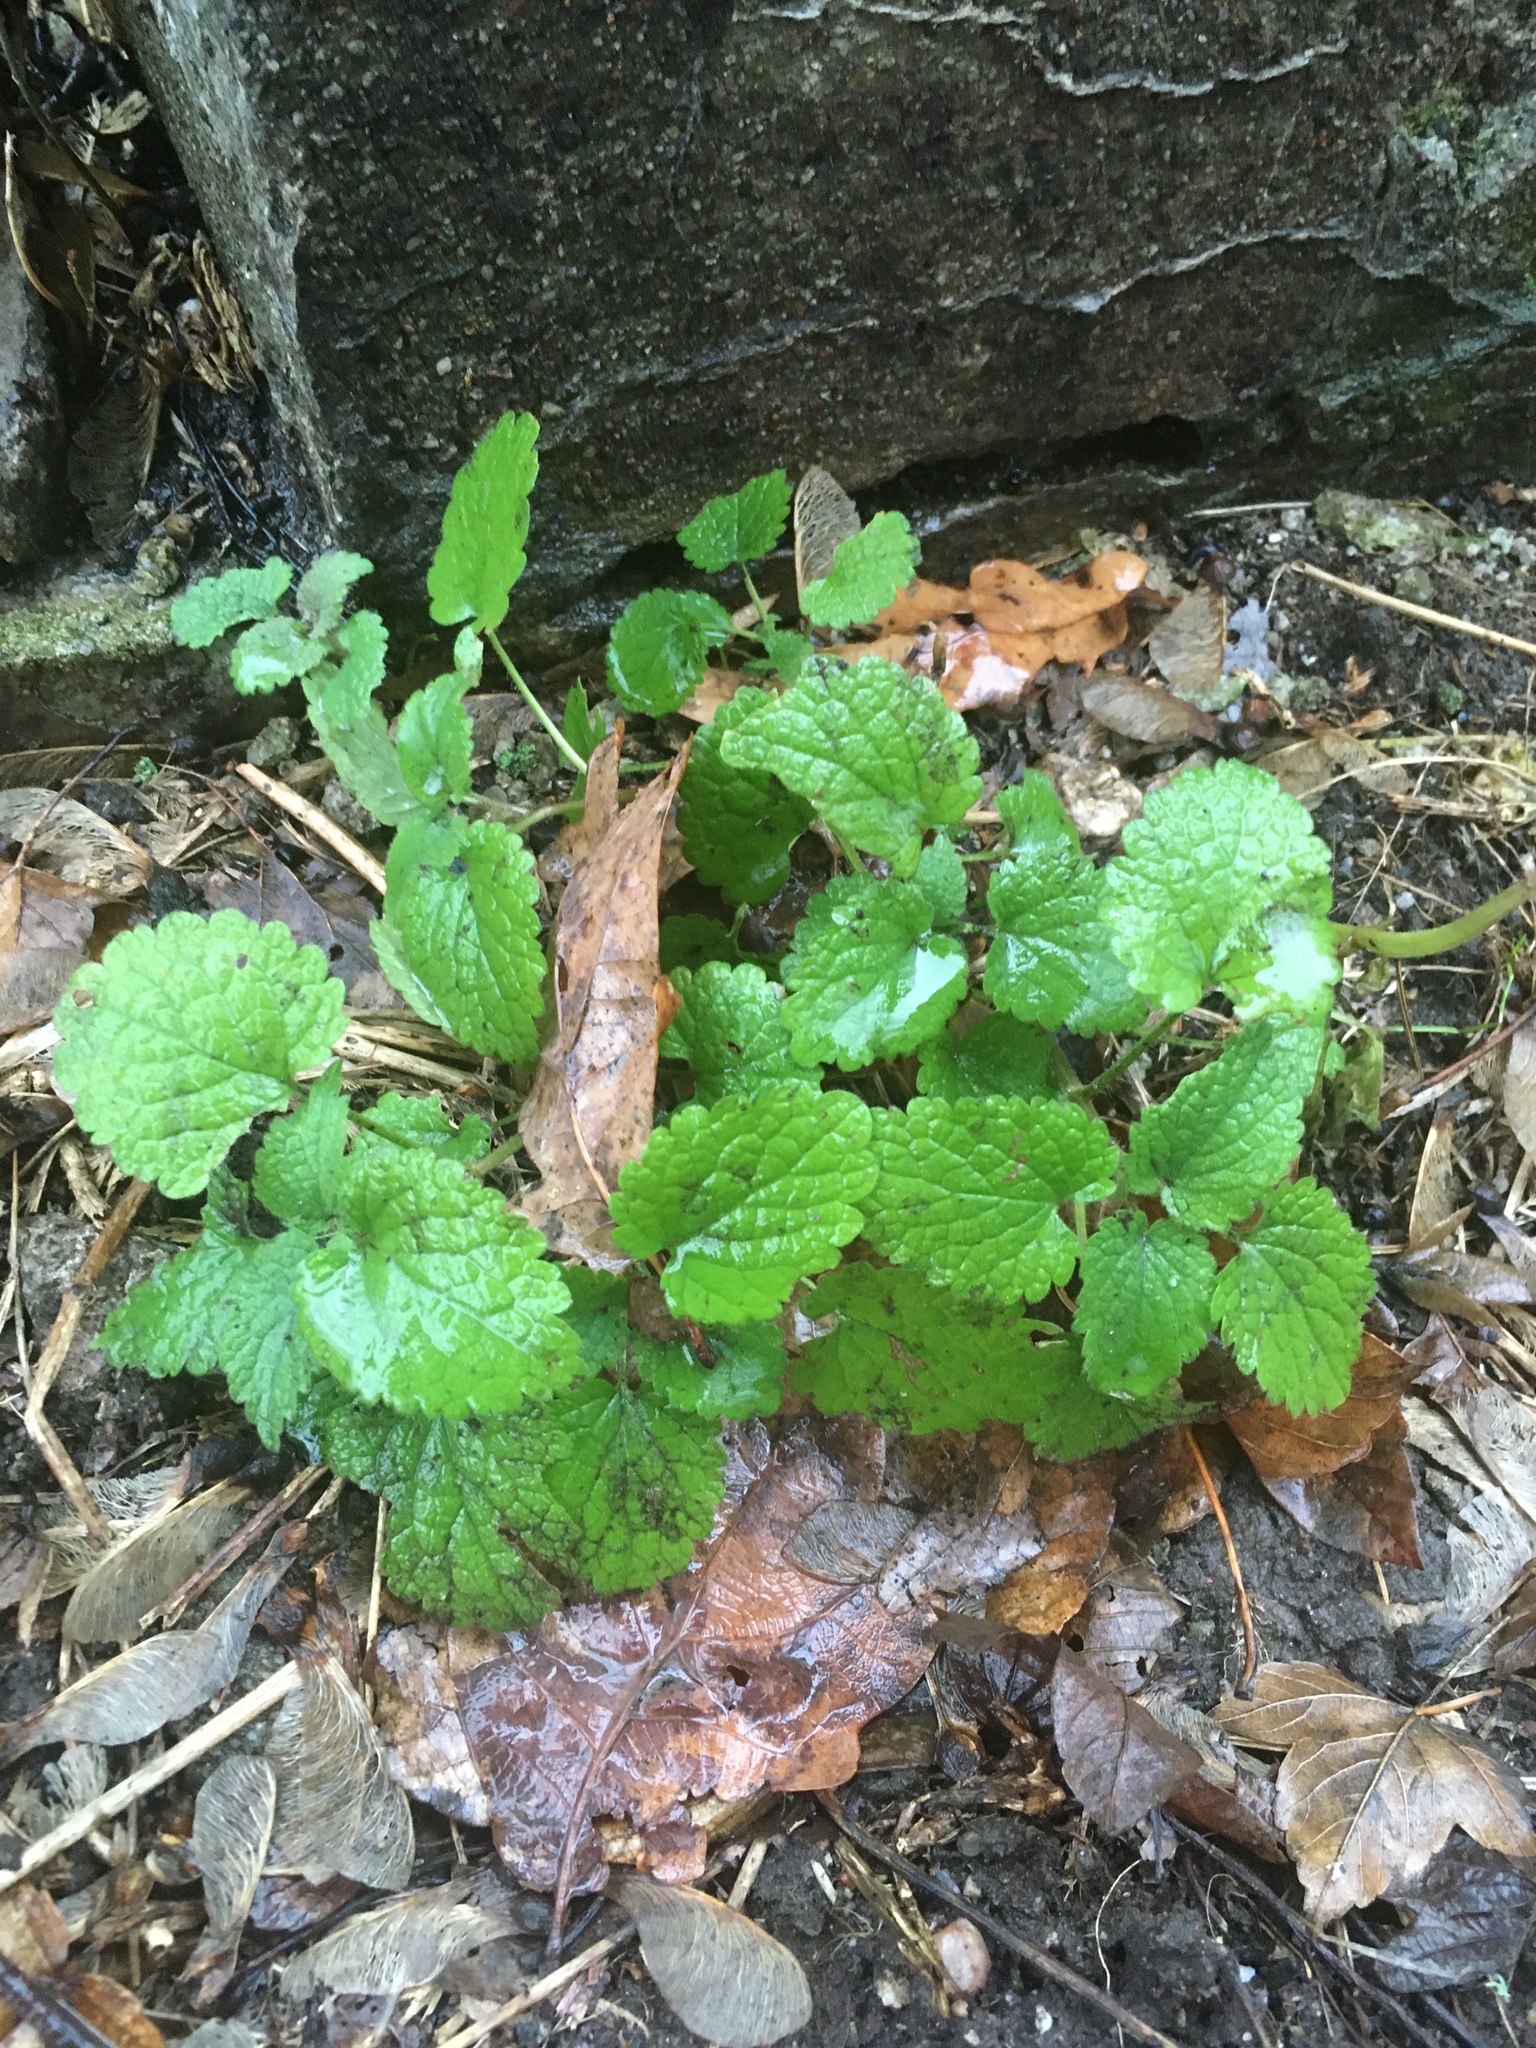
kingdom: Plantae
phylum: Tracheophyta
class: Magnoliopsida
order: Lamiales
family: Lamiaceae
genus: Melissa
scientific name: Melissa officinalis
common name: Balm
